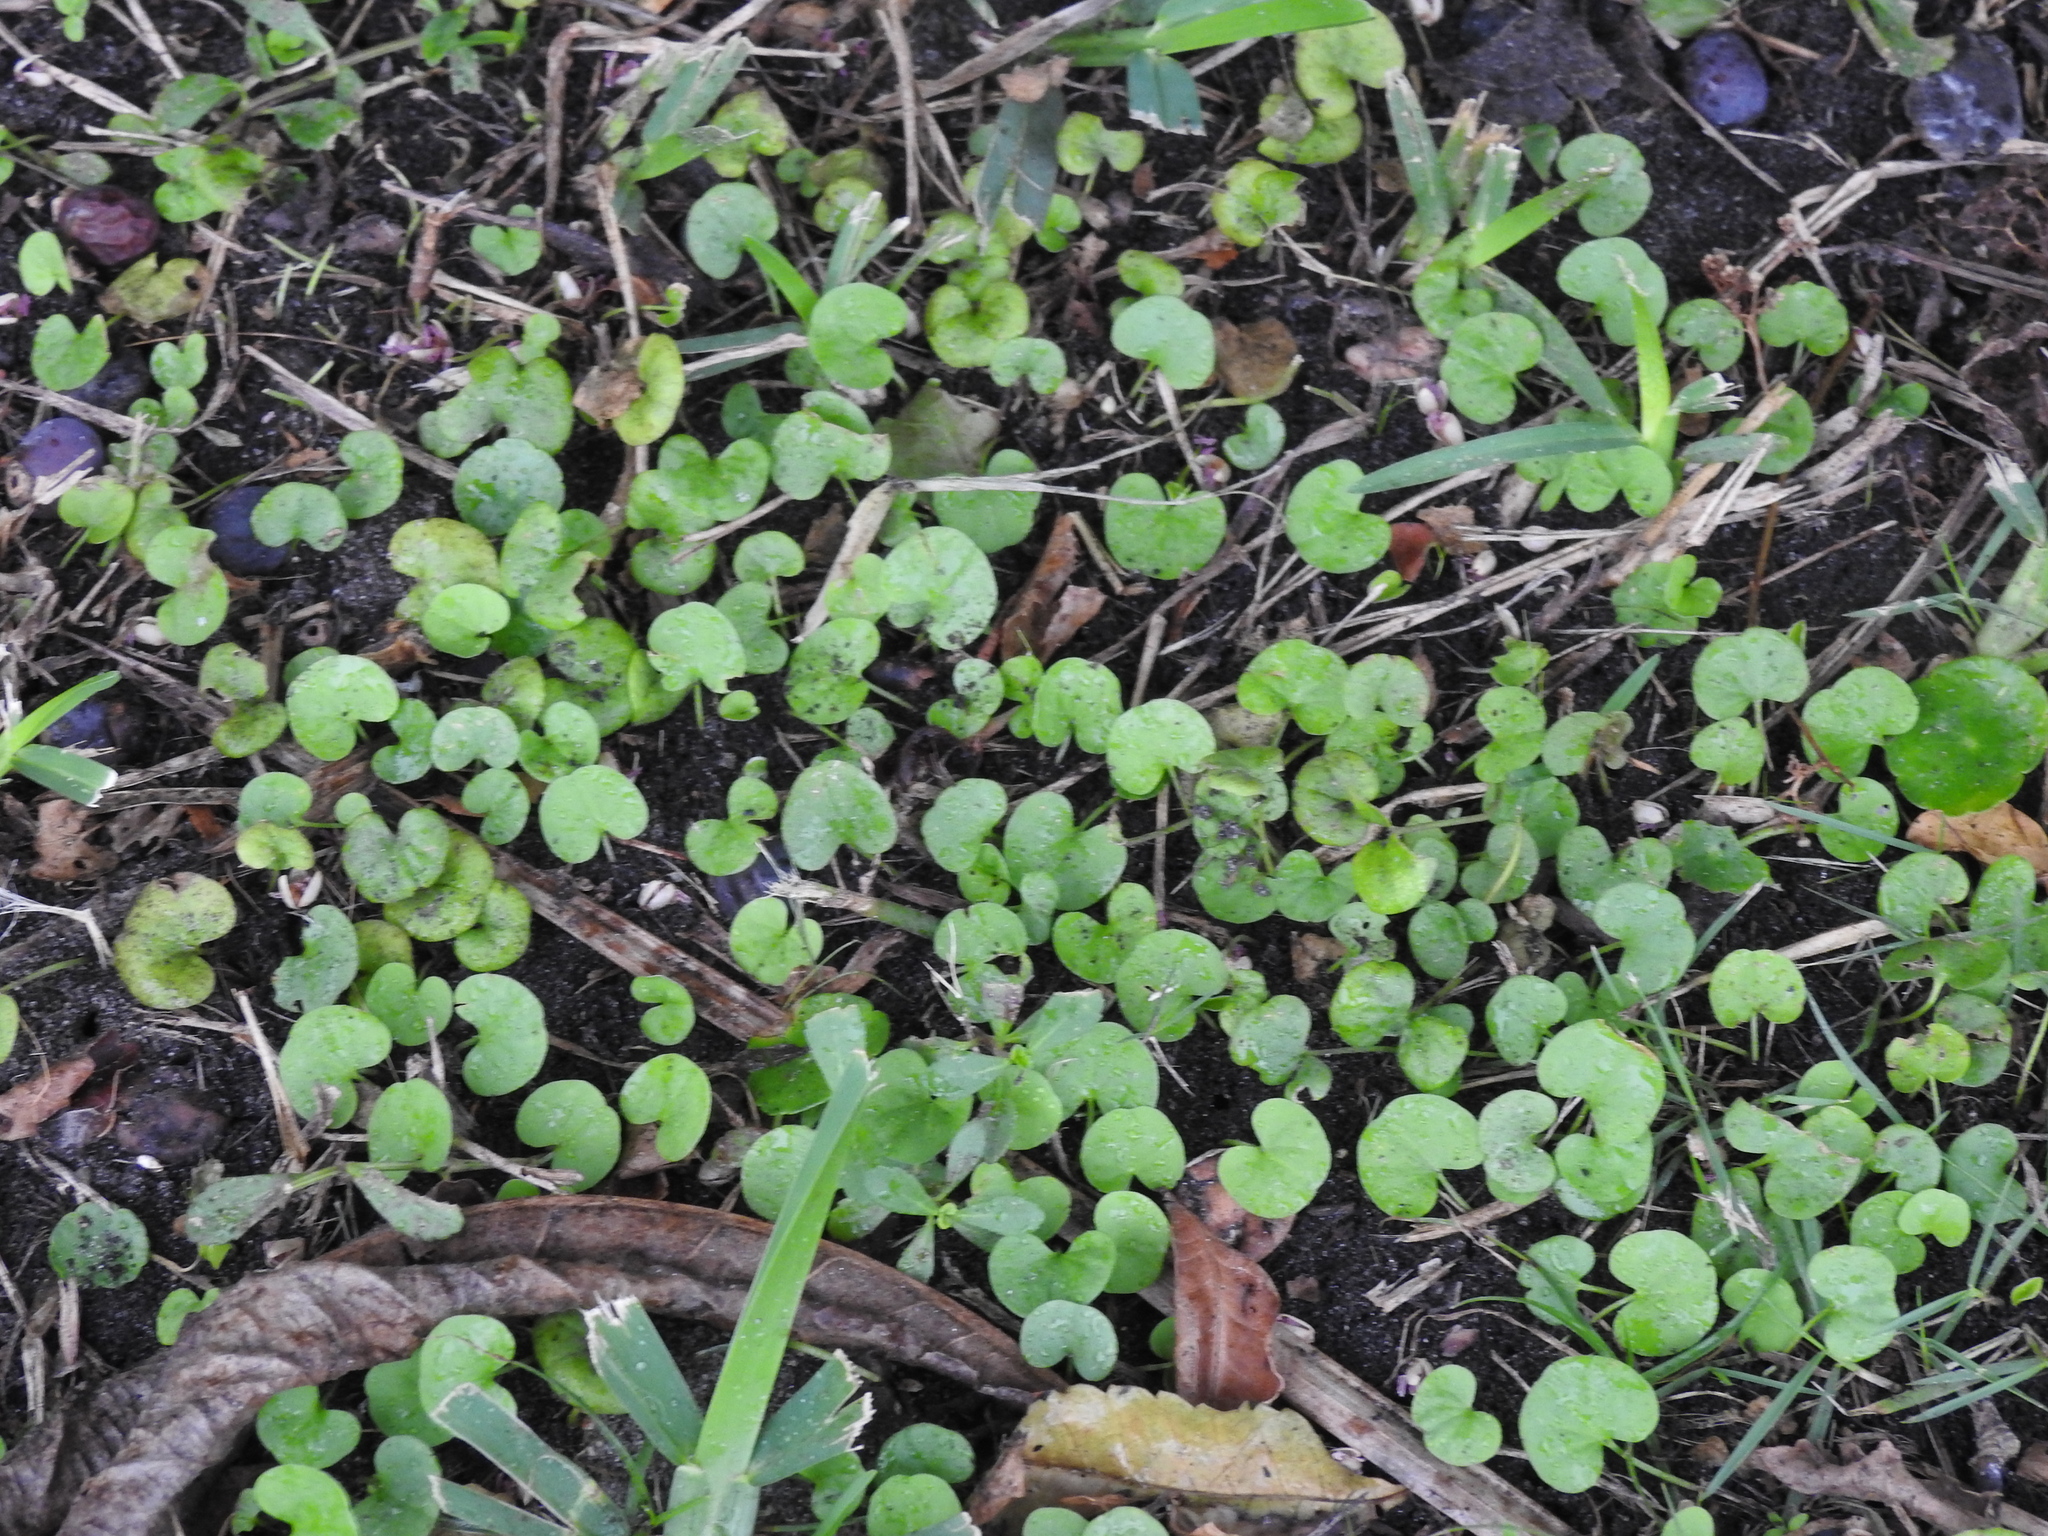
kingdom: Plantae
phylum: Tracheophyta
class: Magnoliopsida
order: Solanales
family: Convolvulaceae
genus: Dichondra
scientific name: Dichondra carolinensis
